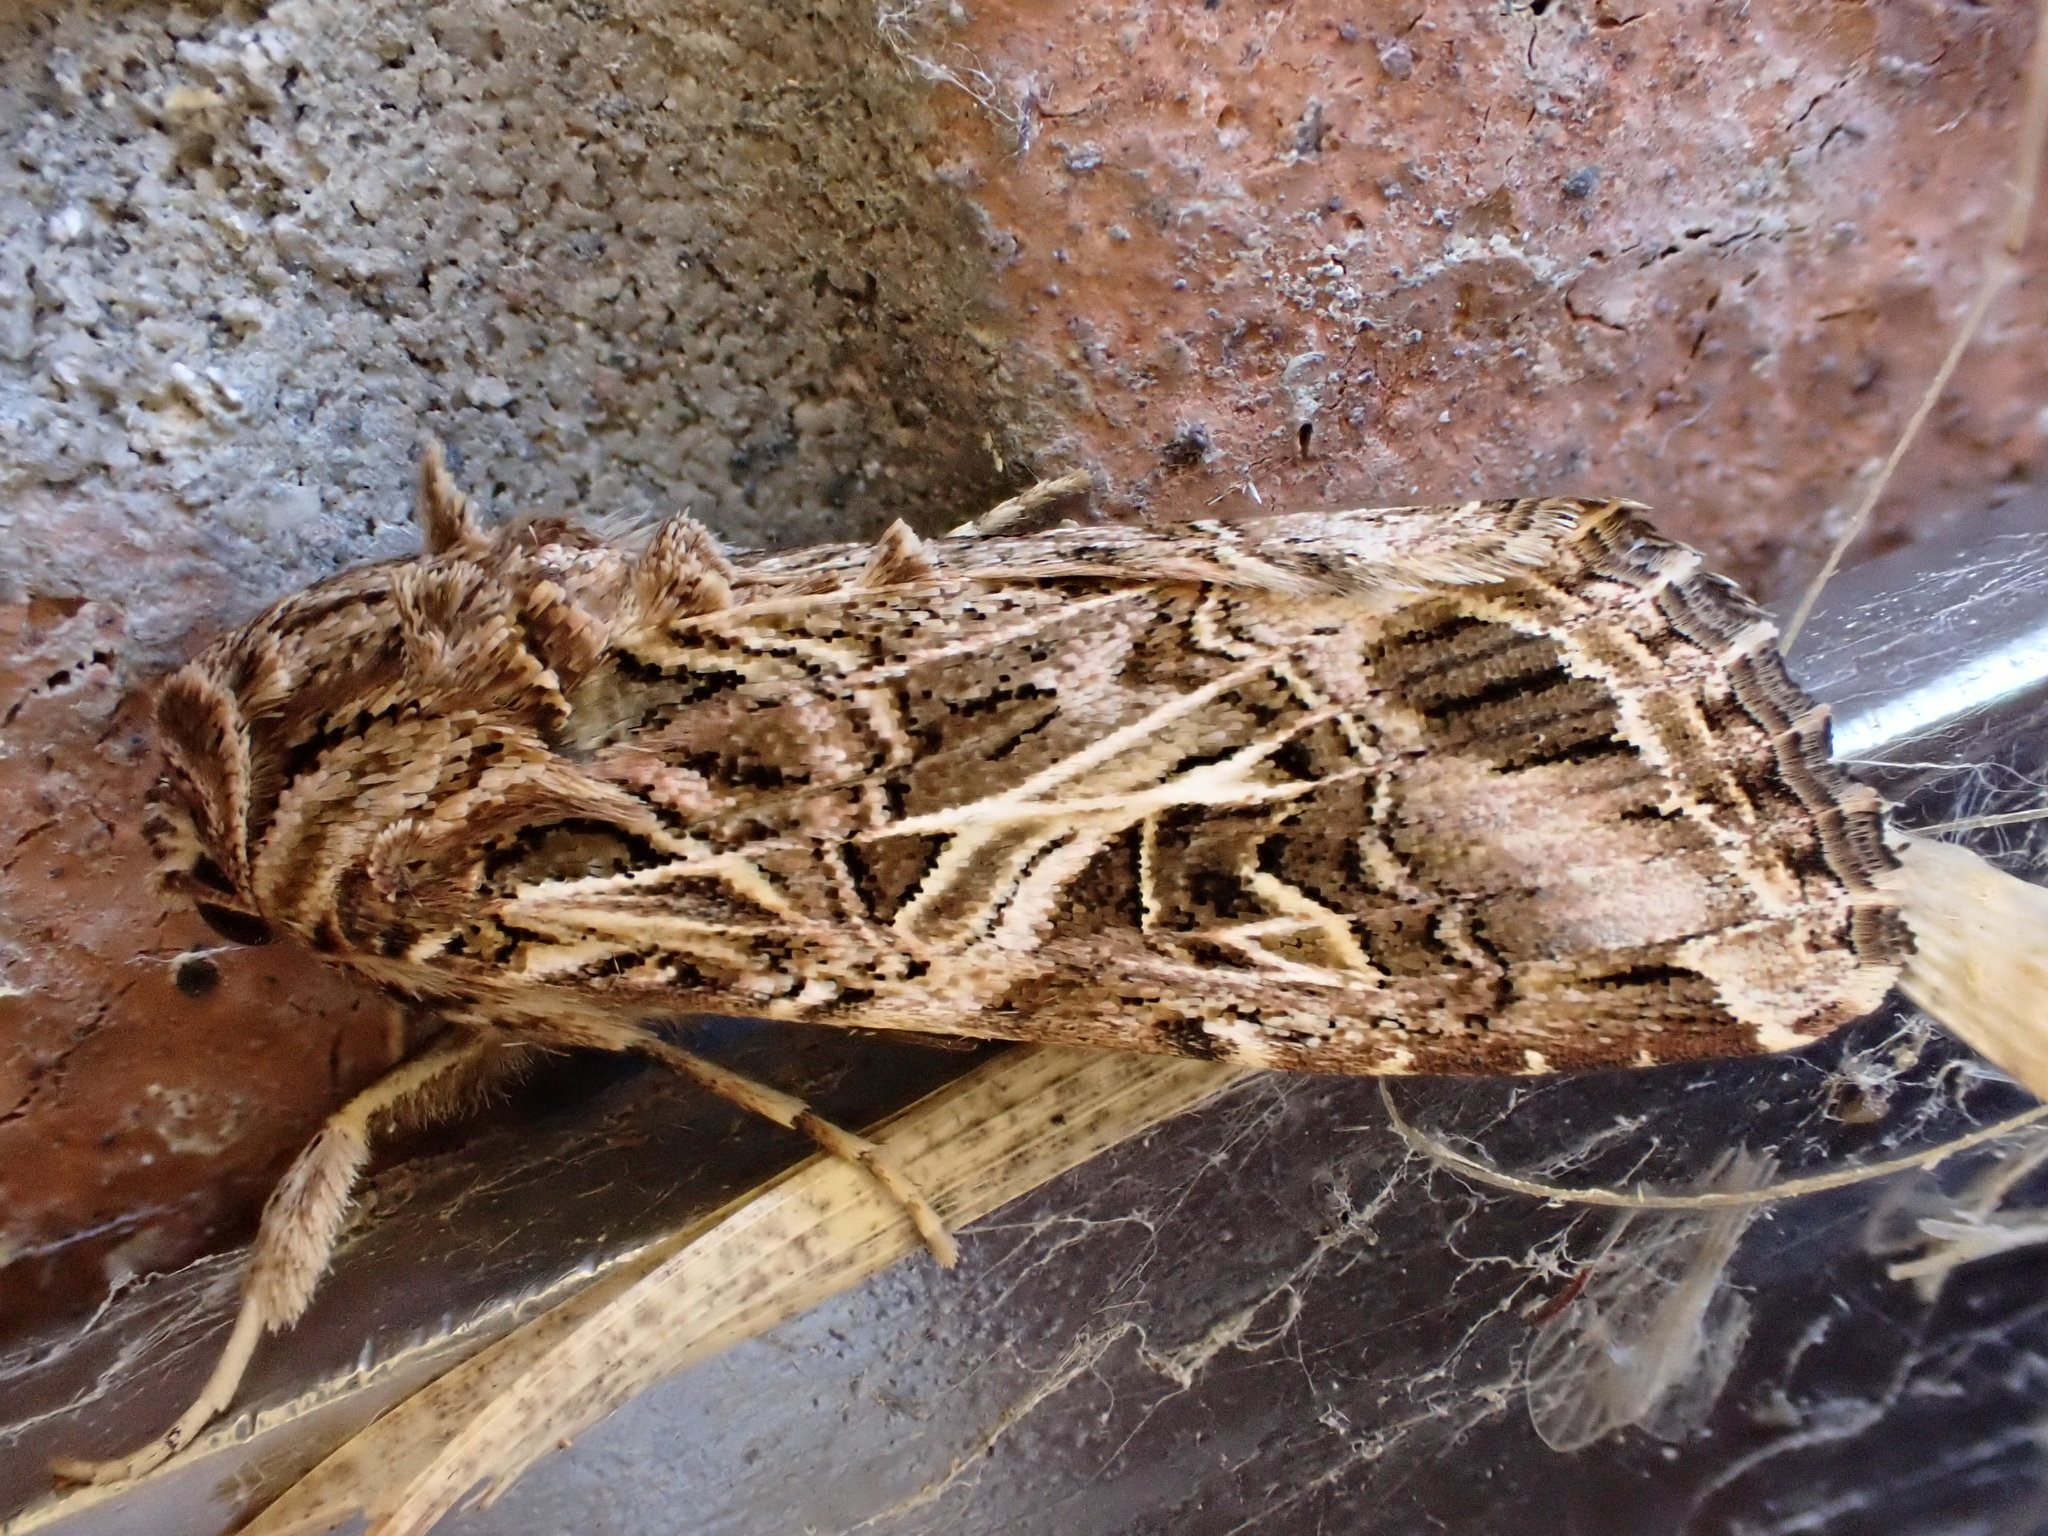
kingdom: Animalia
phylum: Arthropoda
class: Insecta
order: Lepidoptera
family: Noctuidae
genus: Spodoptera
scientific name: Spodoptera litura
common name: Asian cotton leafworm
